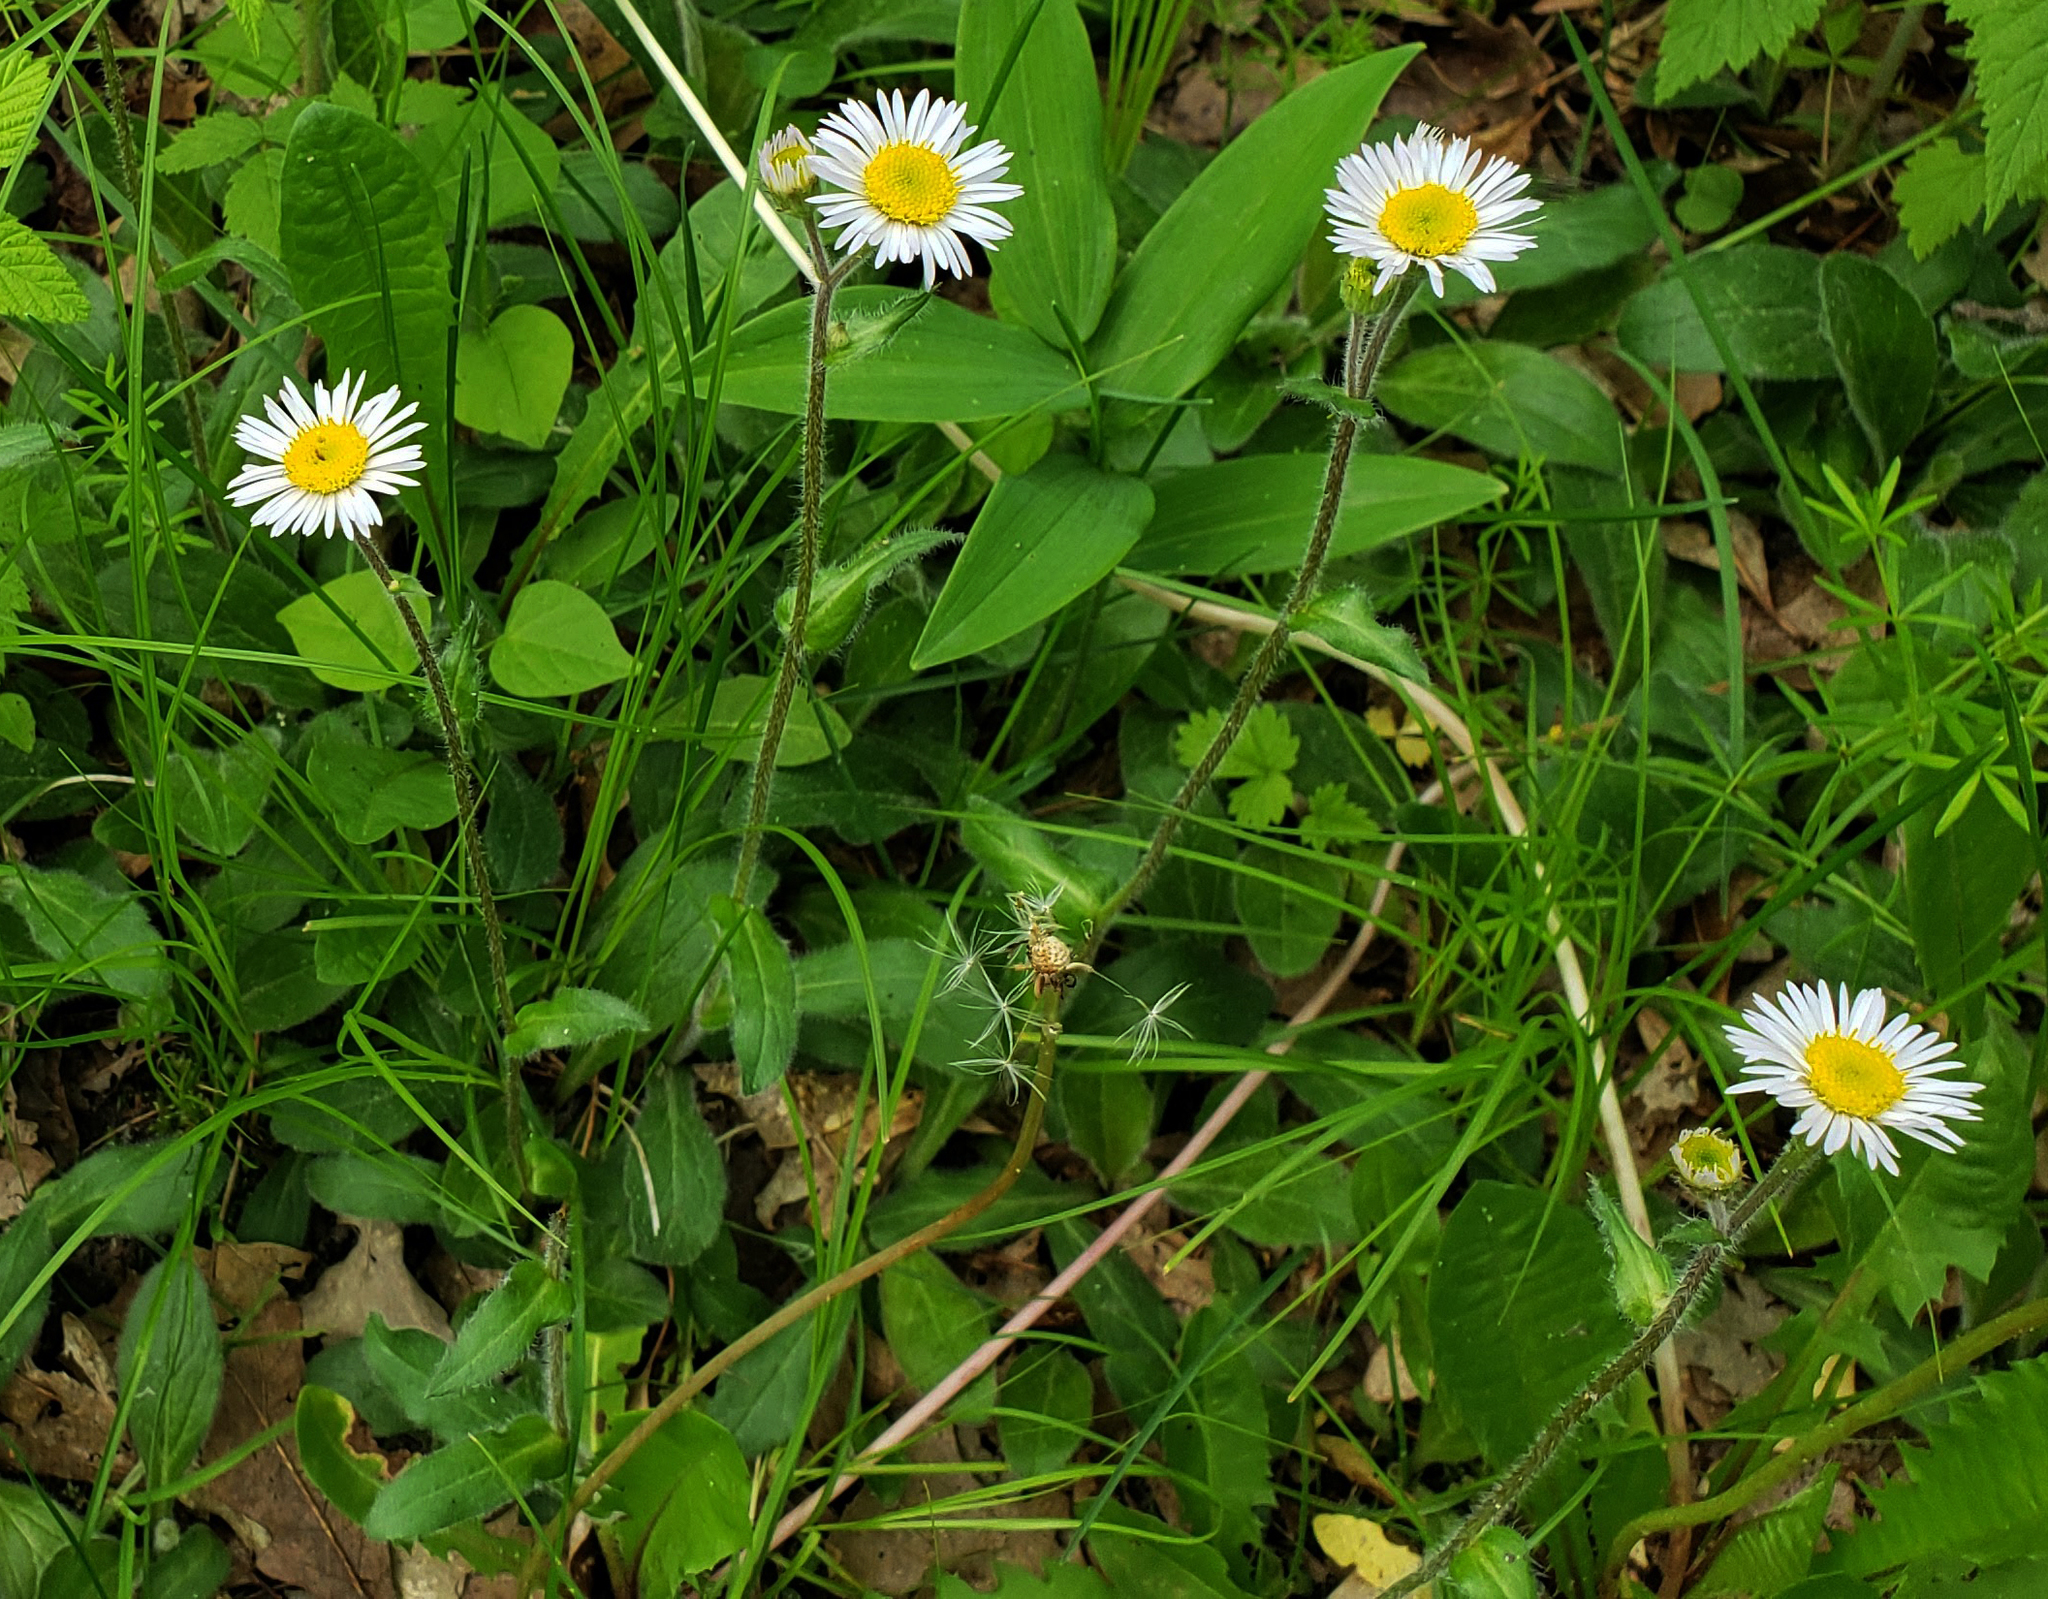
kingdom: Plantae
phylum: Tracheophyta
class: Magnoliopsida
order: Asterales
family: Asteraceae
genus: Erigeron
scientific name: Erigeron pulchellus
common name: Hairy fleabane
